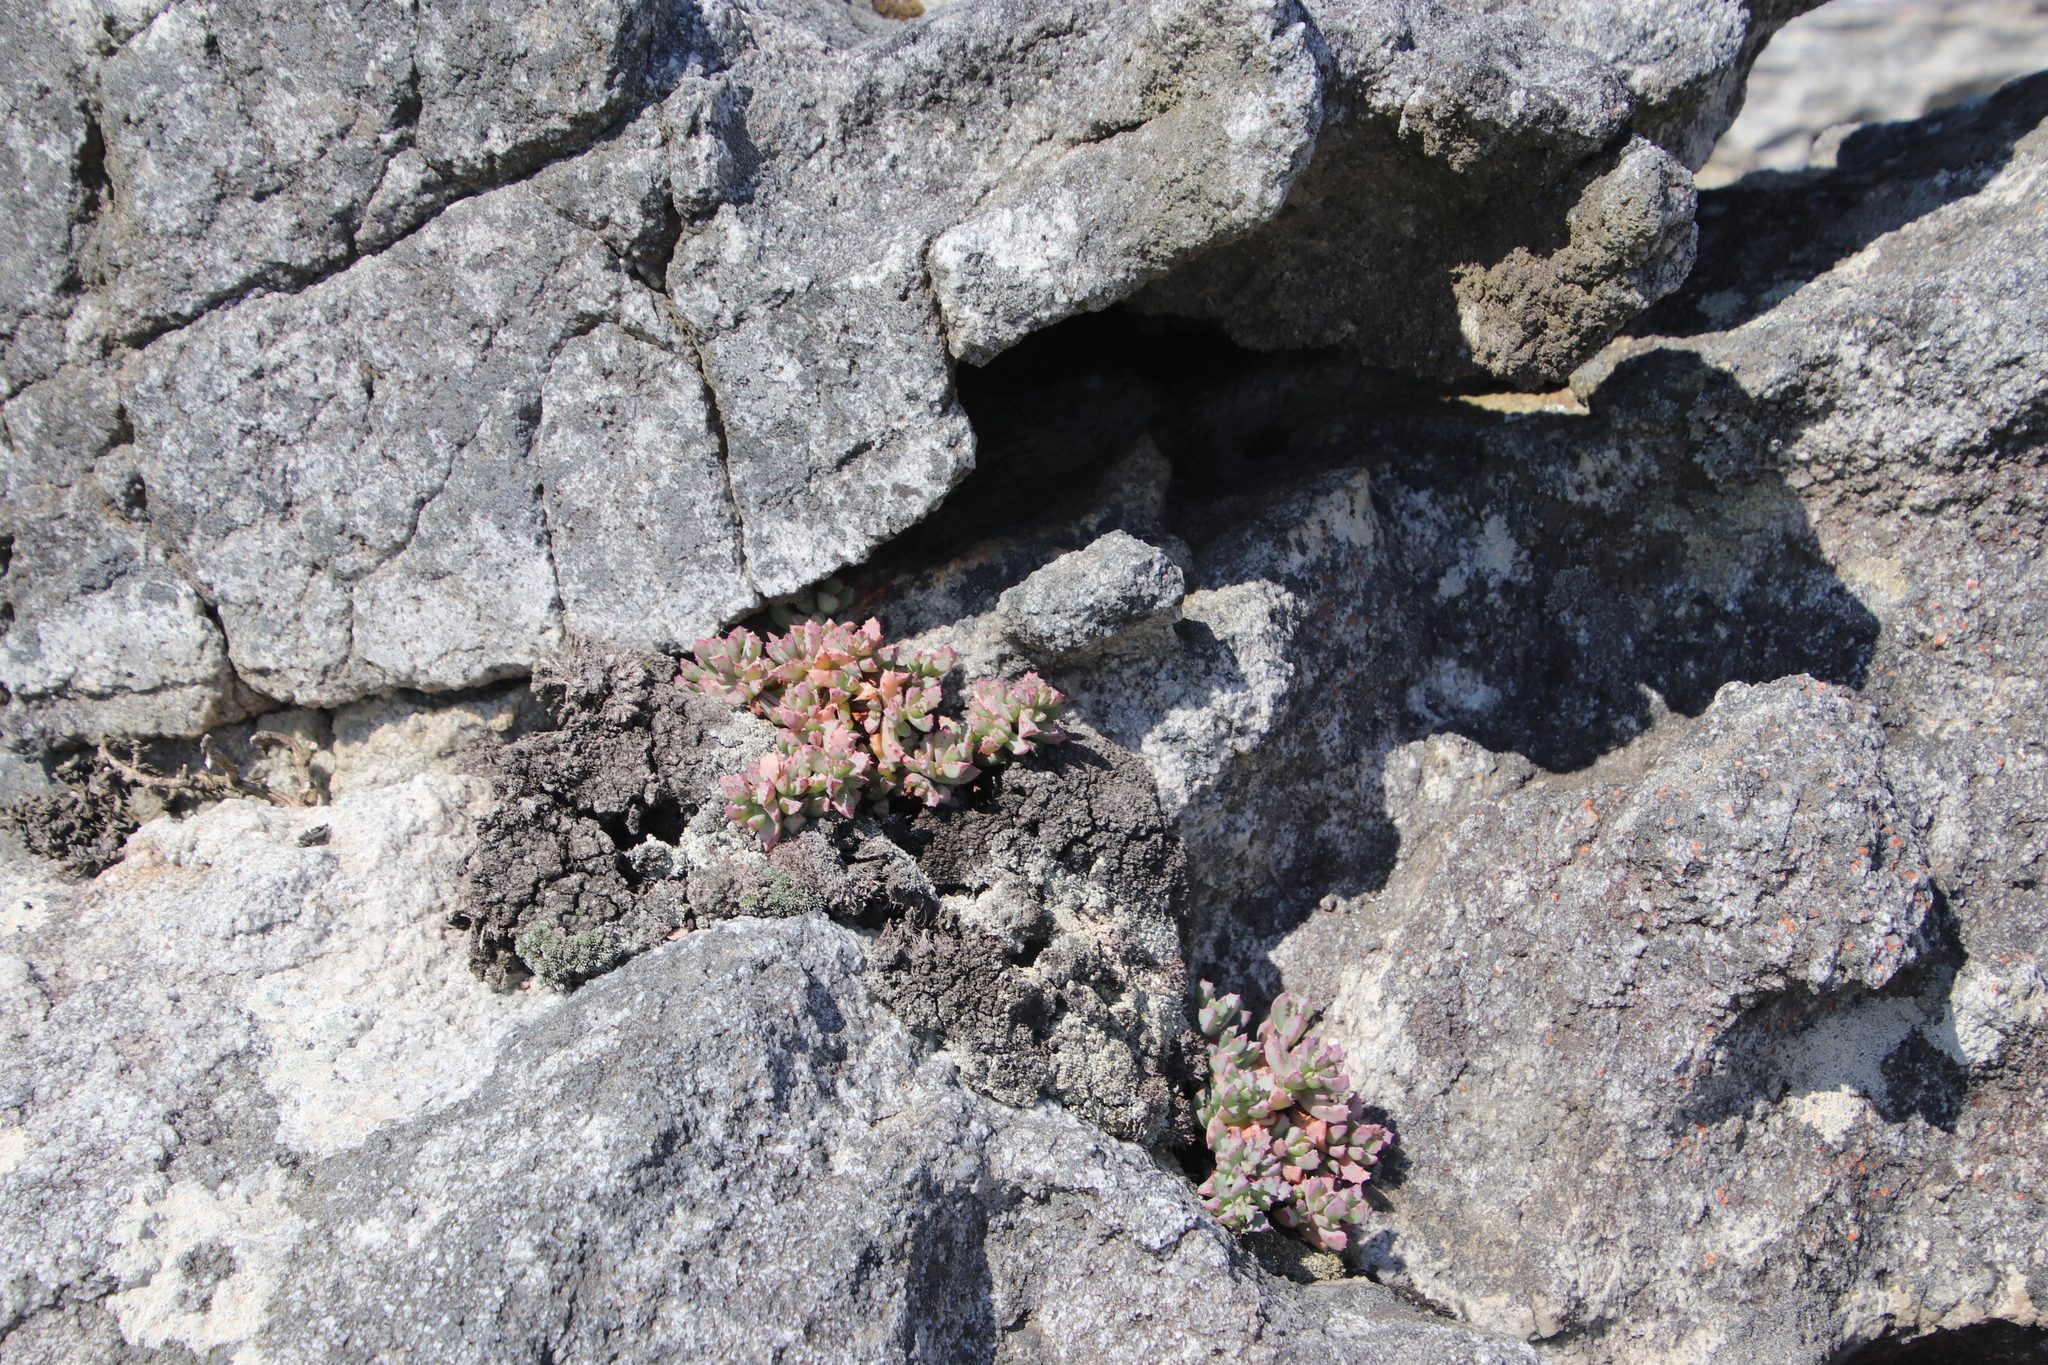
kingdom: Plantae
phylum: Tracheophyta
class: Magnoliopsida
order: Caryophyllales
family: Aizoaceae
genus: Oscularia
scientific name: Oscularia deltoides
